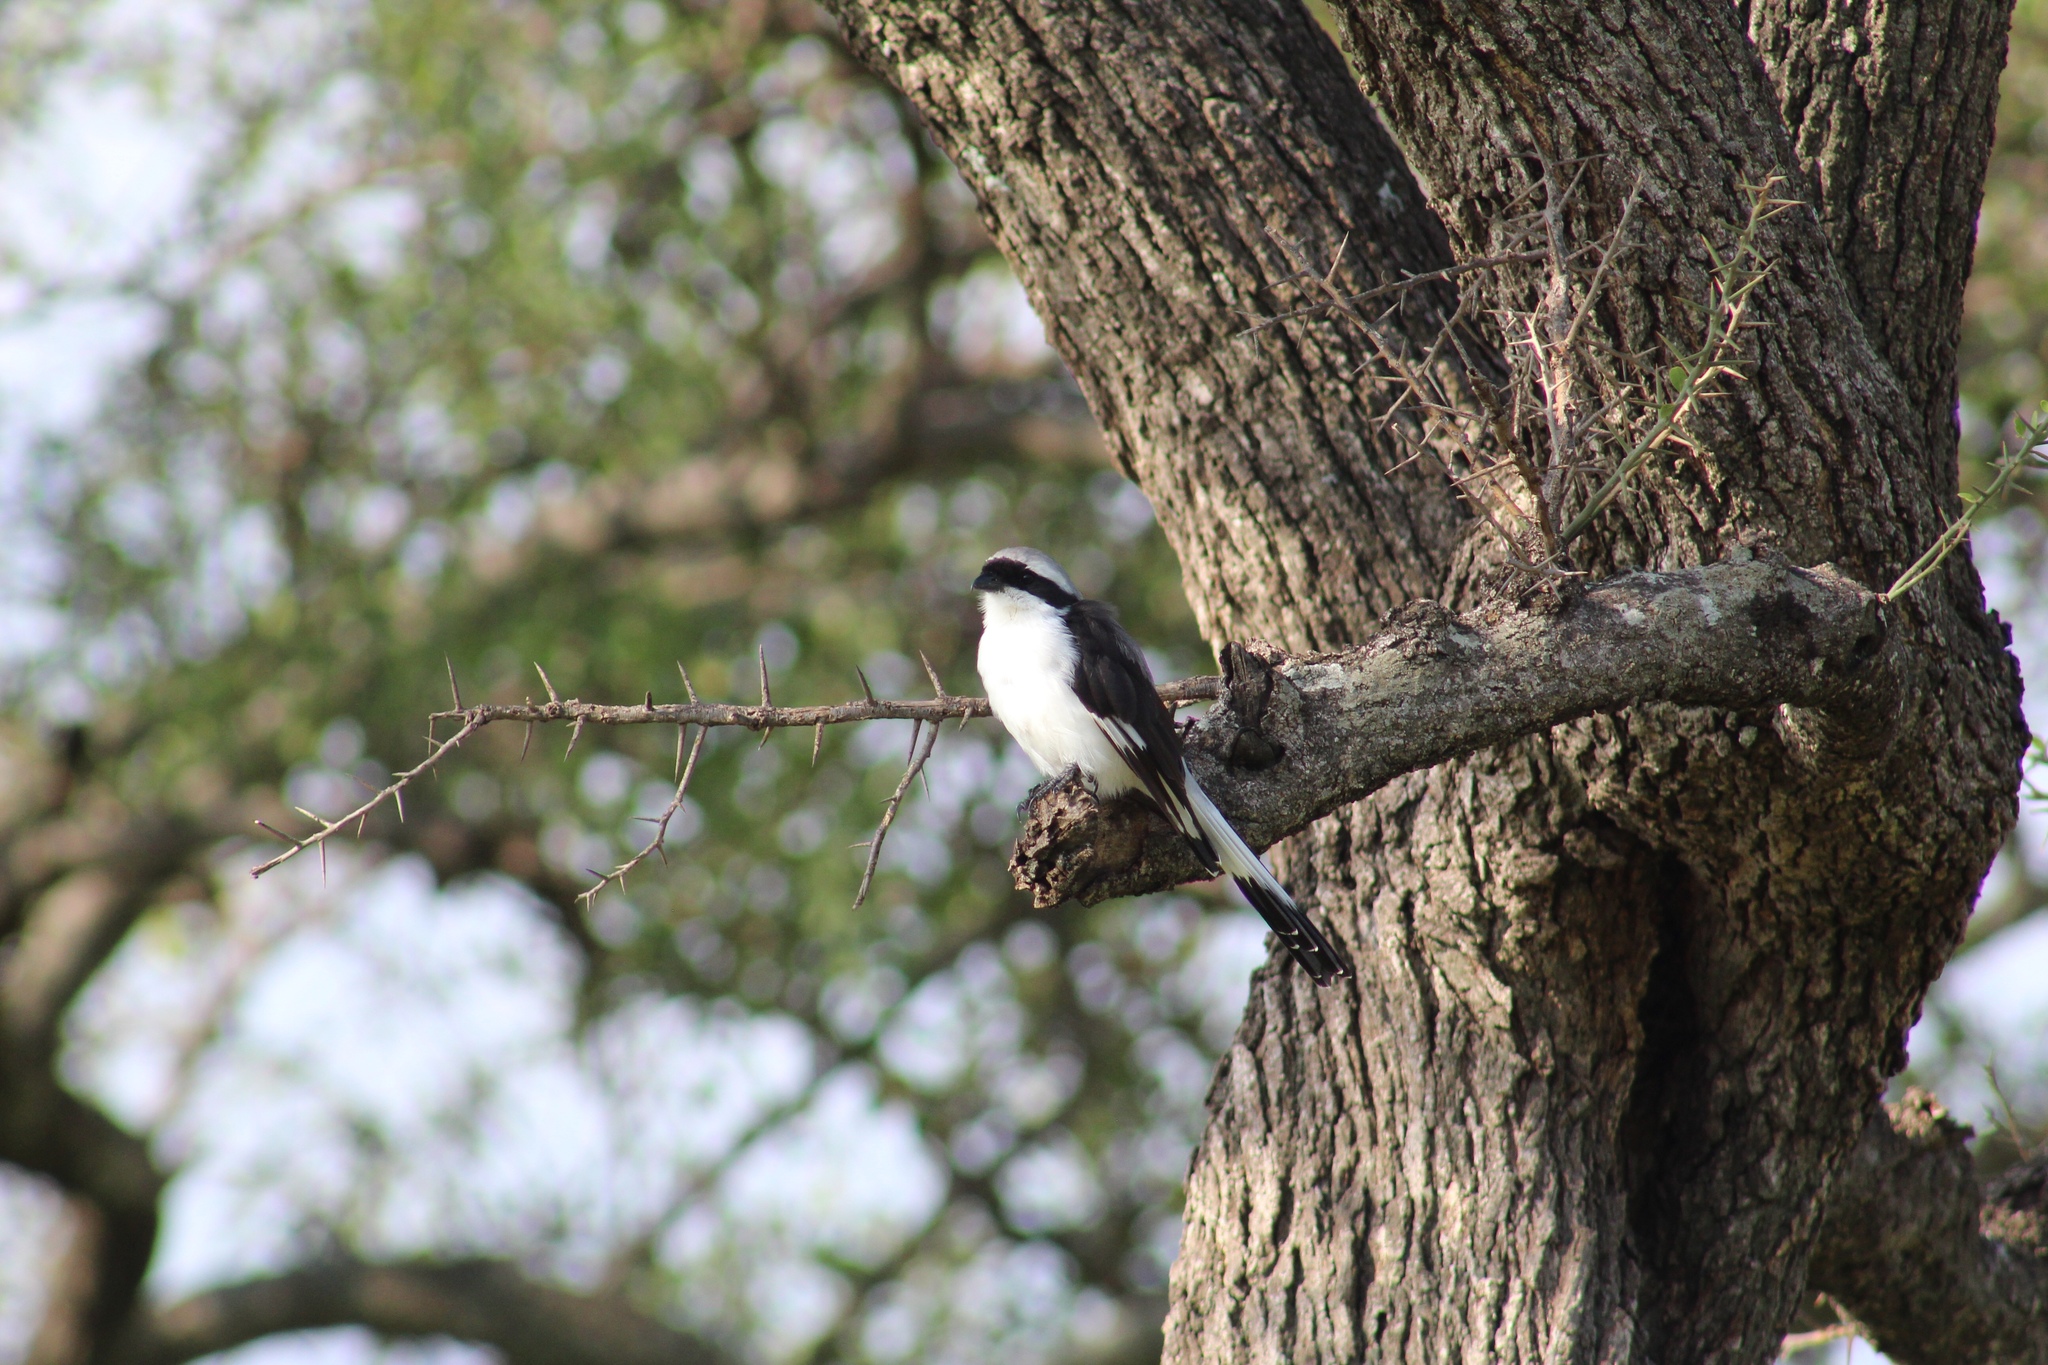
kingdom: Animalia
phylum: Chordata
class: Aves
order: Passeriformes
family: Laniidae
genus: Lanius
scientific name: Lanius excubitoroides
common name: Grey-backed fiscal
